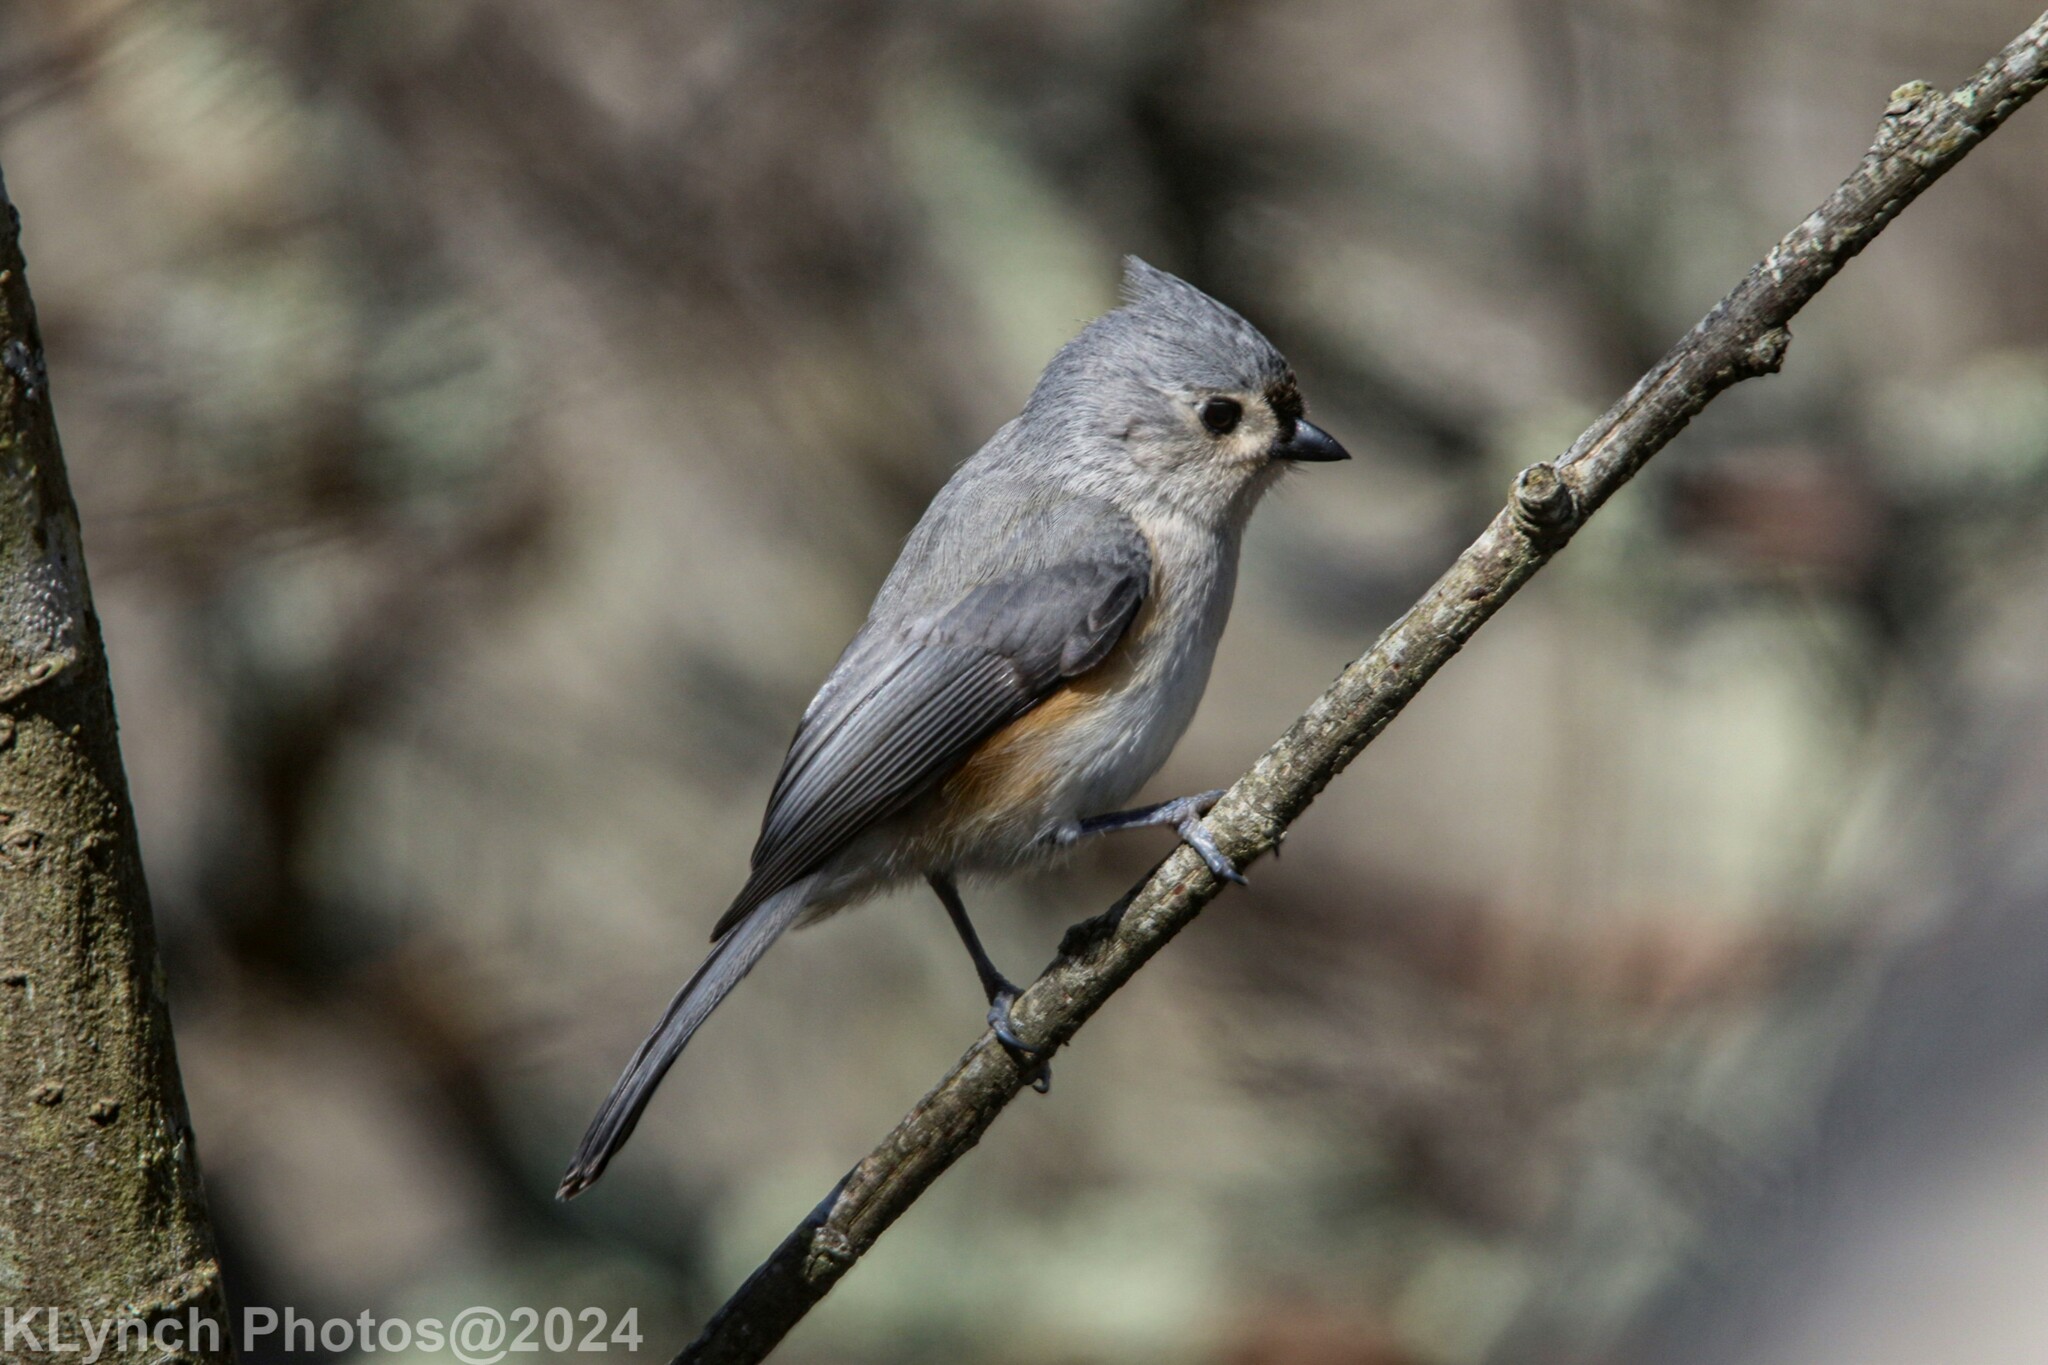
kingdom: Animalia
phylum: Chordata
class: Aves
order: Passeriformes
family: Paridae
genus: Baeolophus
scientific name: Baeolophus bicolor
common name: Tufted titmouse
